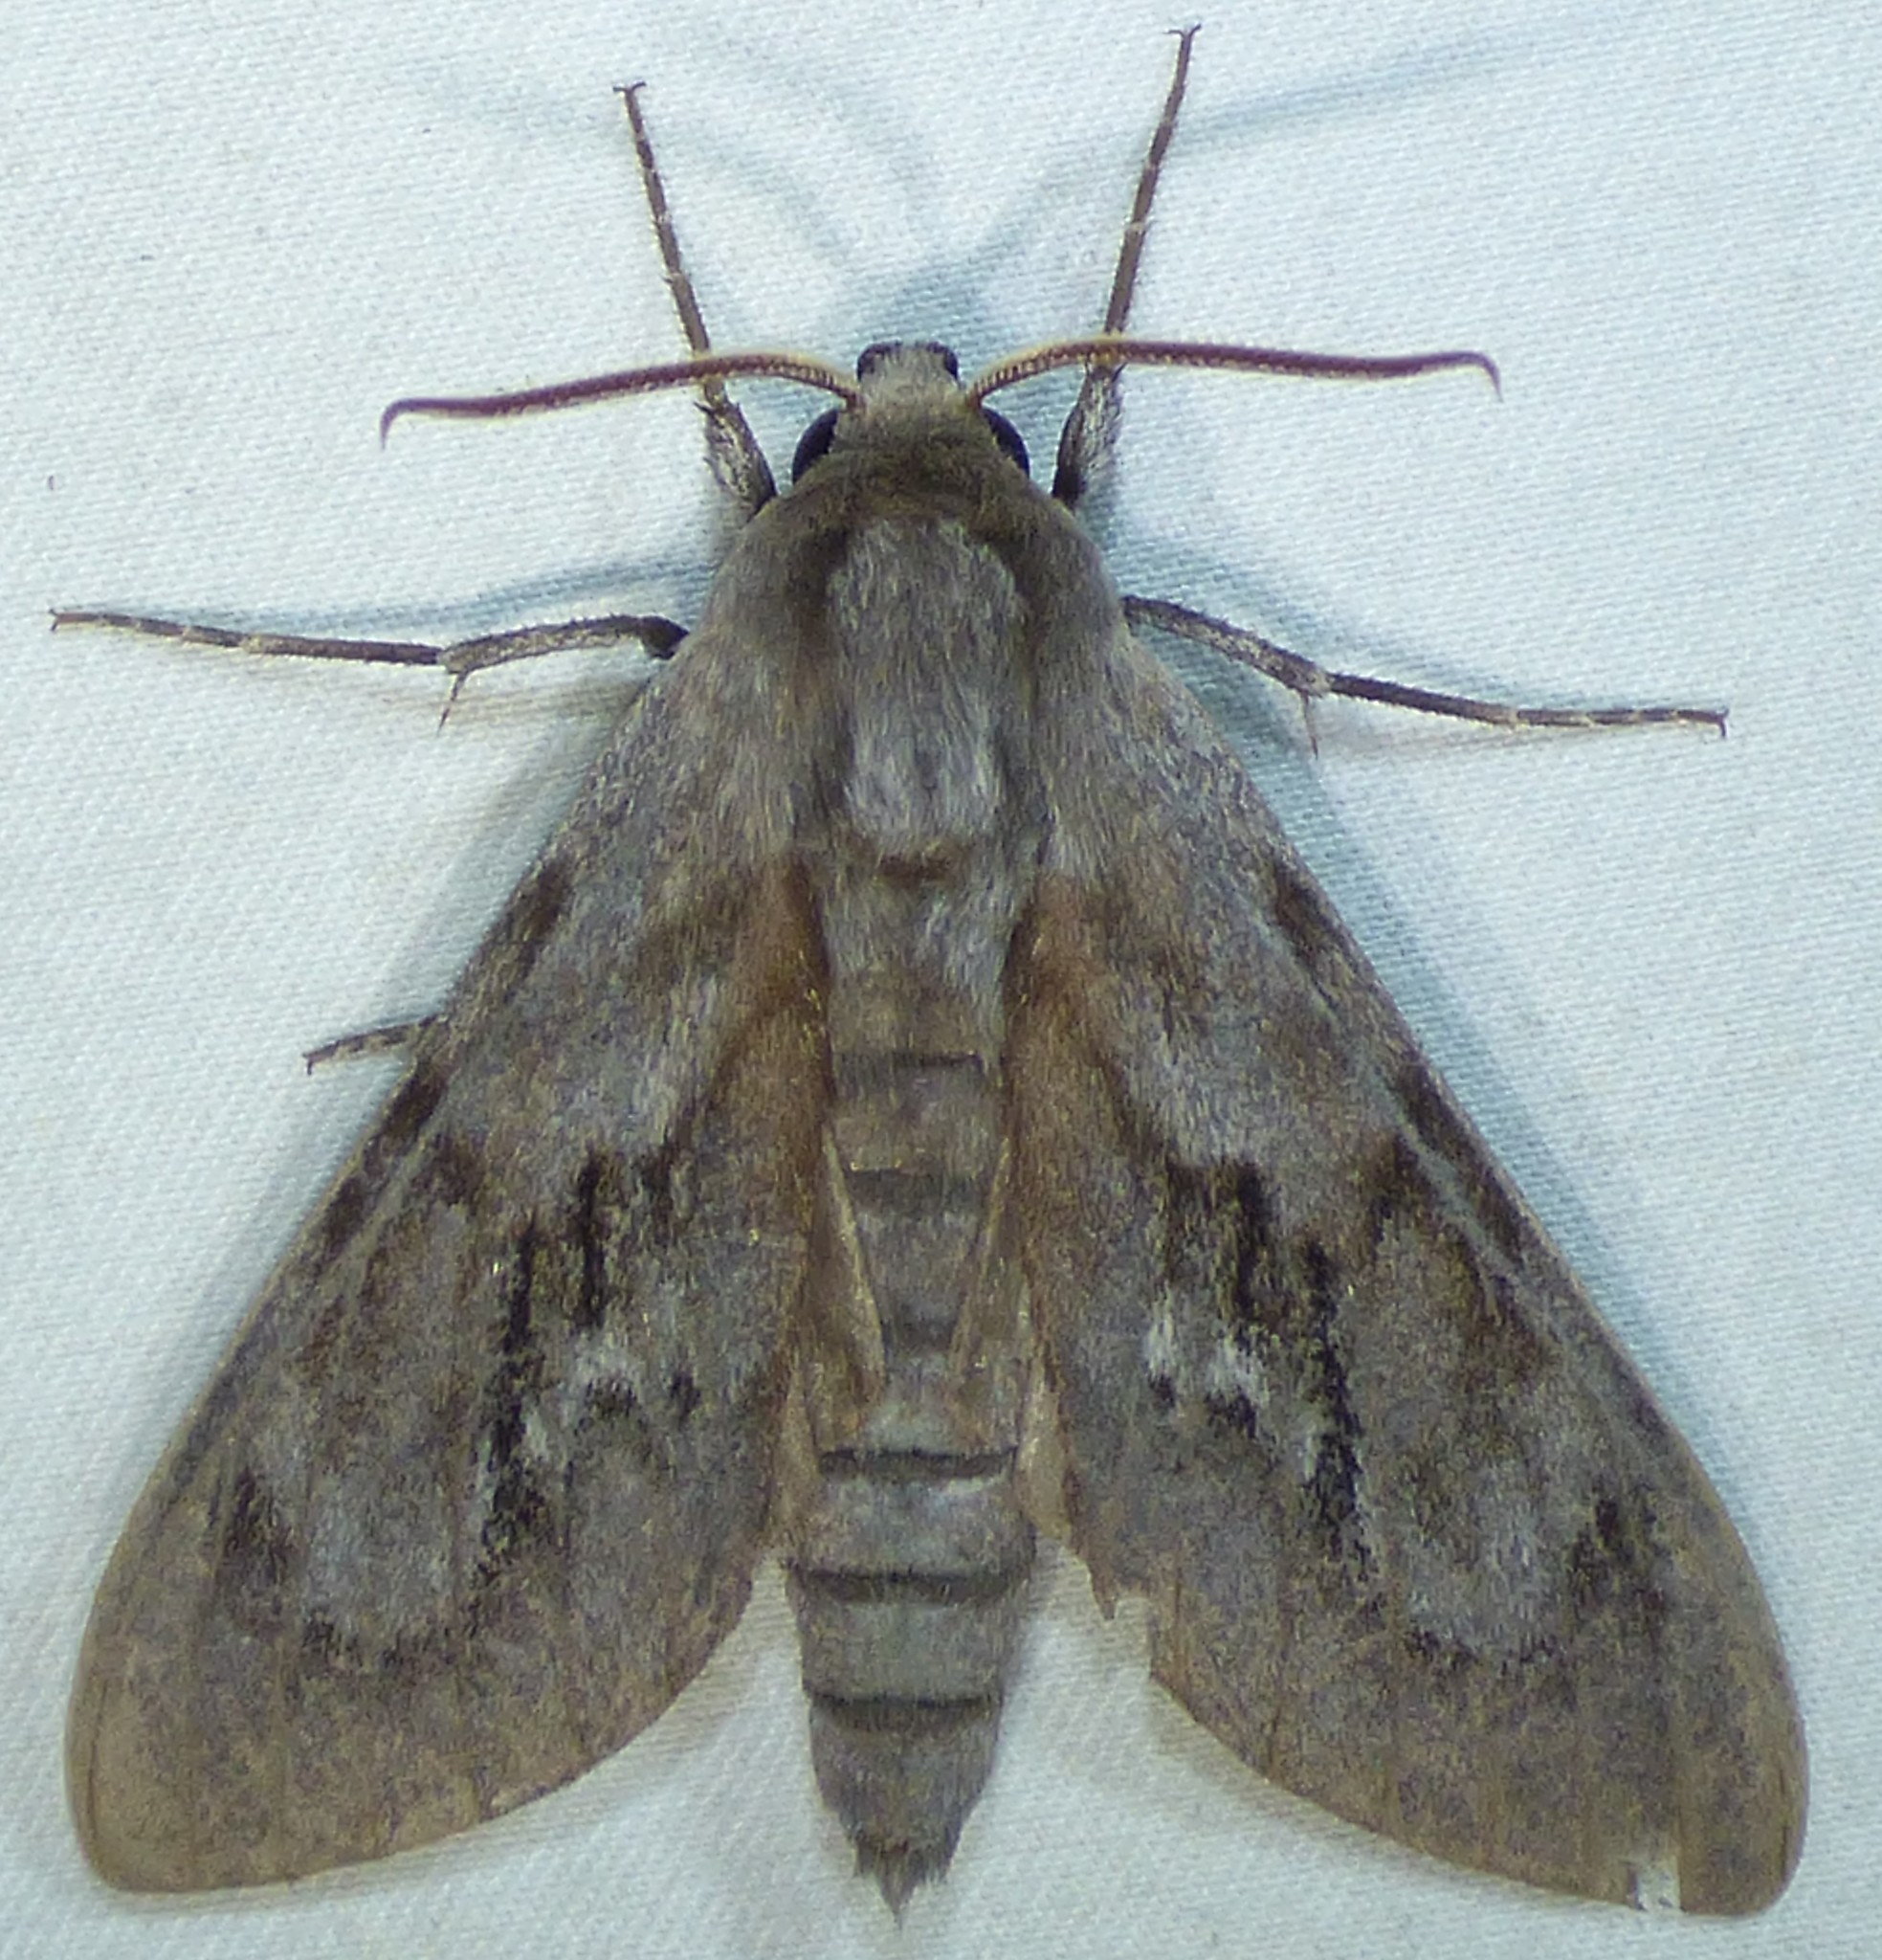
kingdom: Animalia
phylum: Arthropoda
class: Insecta
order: Lepidoptera
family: Sphingidae
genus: Lapara
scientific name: Lapara coniferarum
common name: Southern pine sphinx
